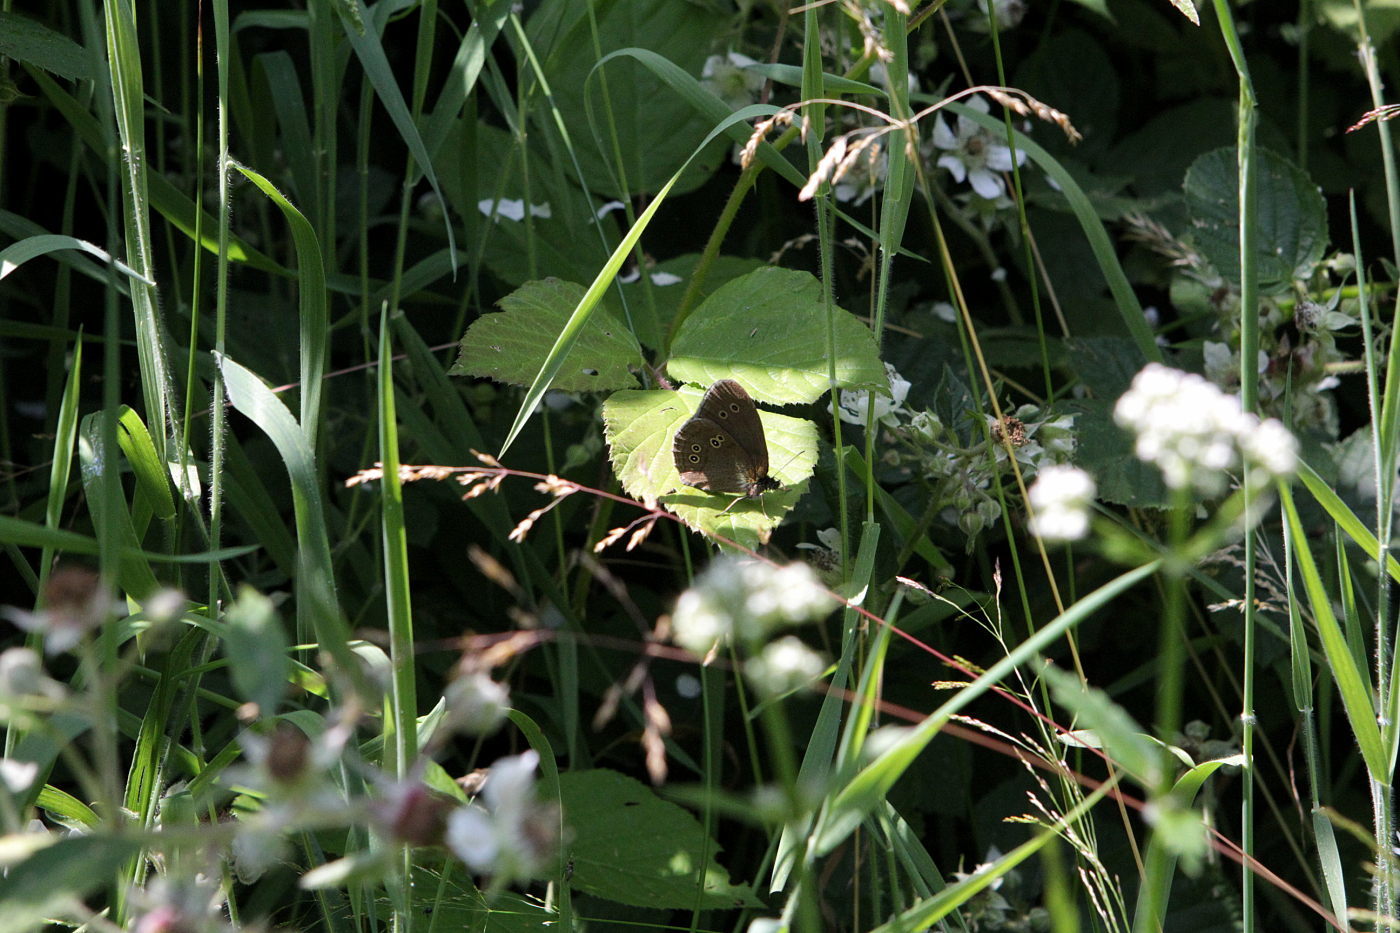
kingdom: Animalia
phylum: Arthropoda
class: Insecta
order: Lepidoptera
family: Nymphalidae
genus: Aphantopus
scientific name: Aphantopus hyperantus
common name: Ringlet
